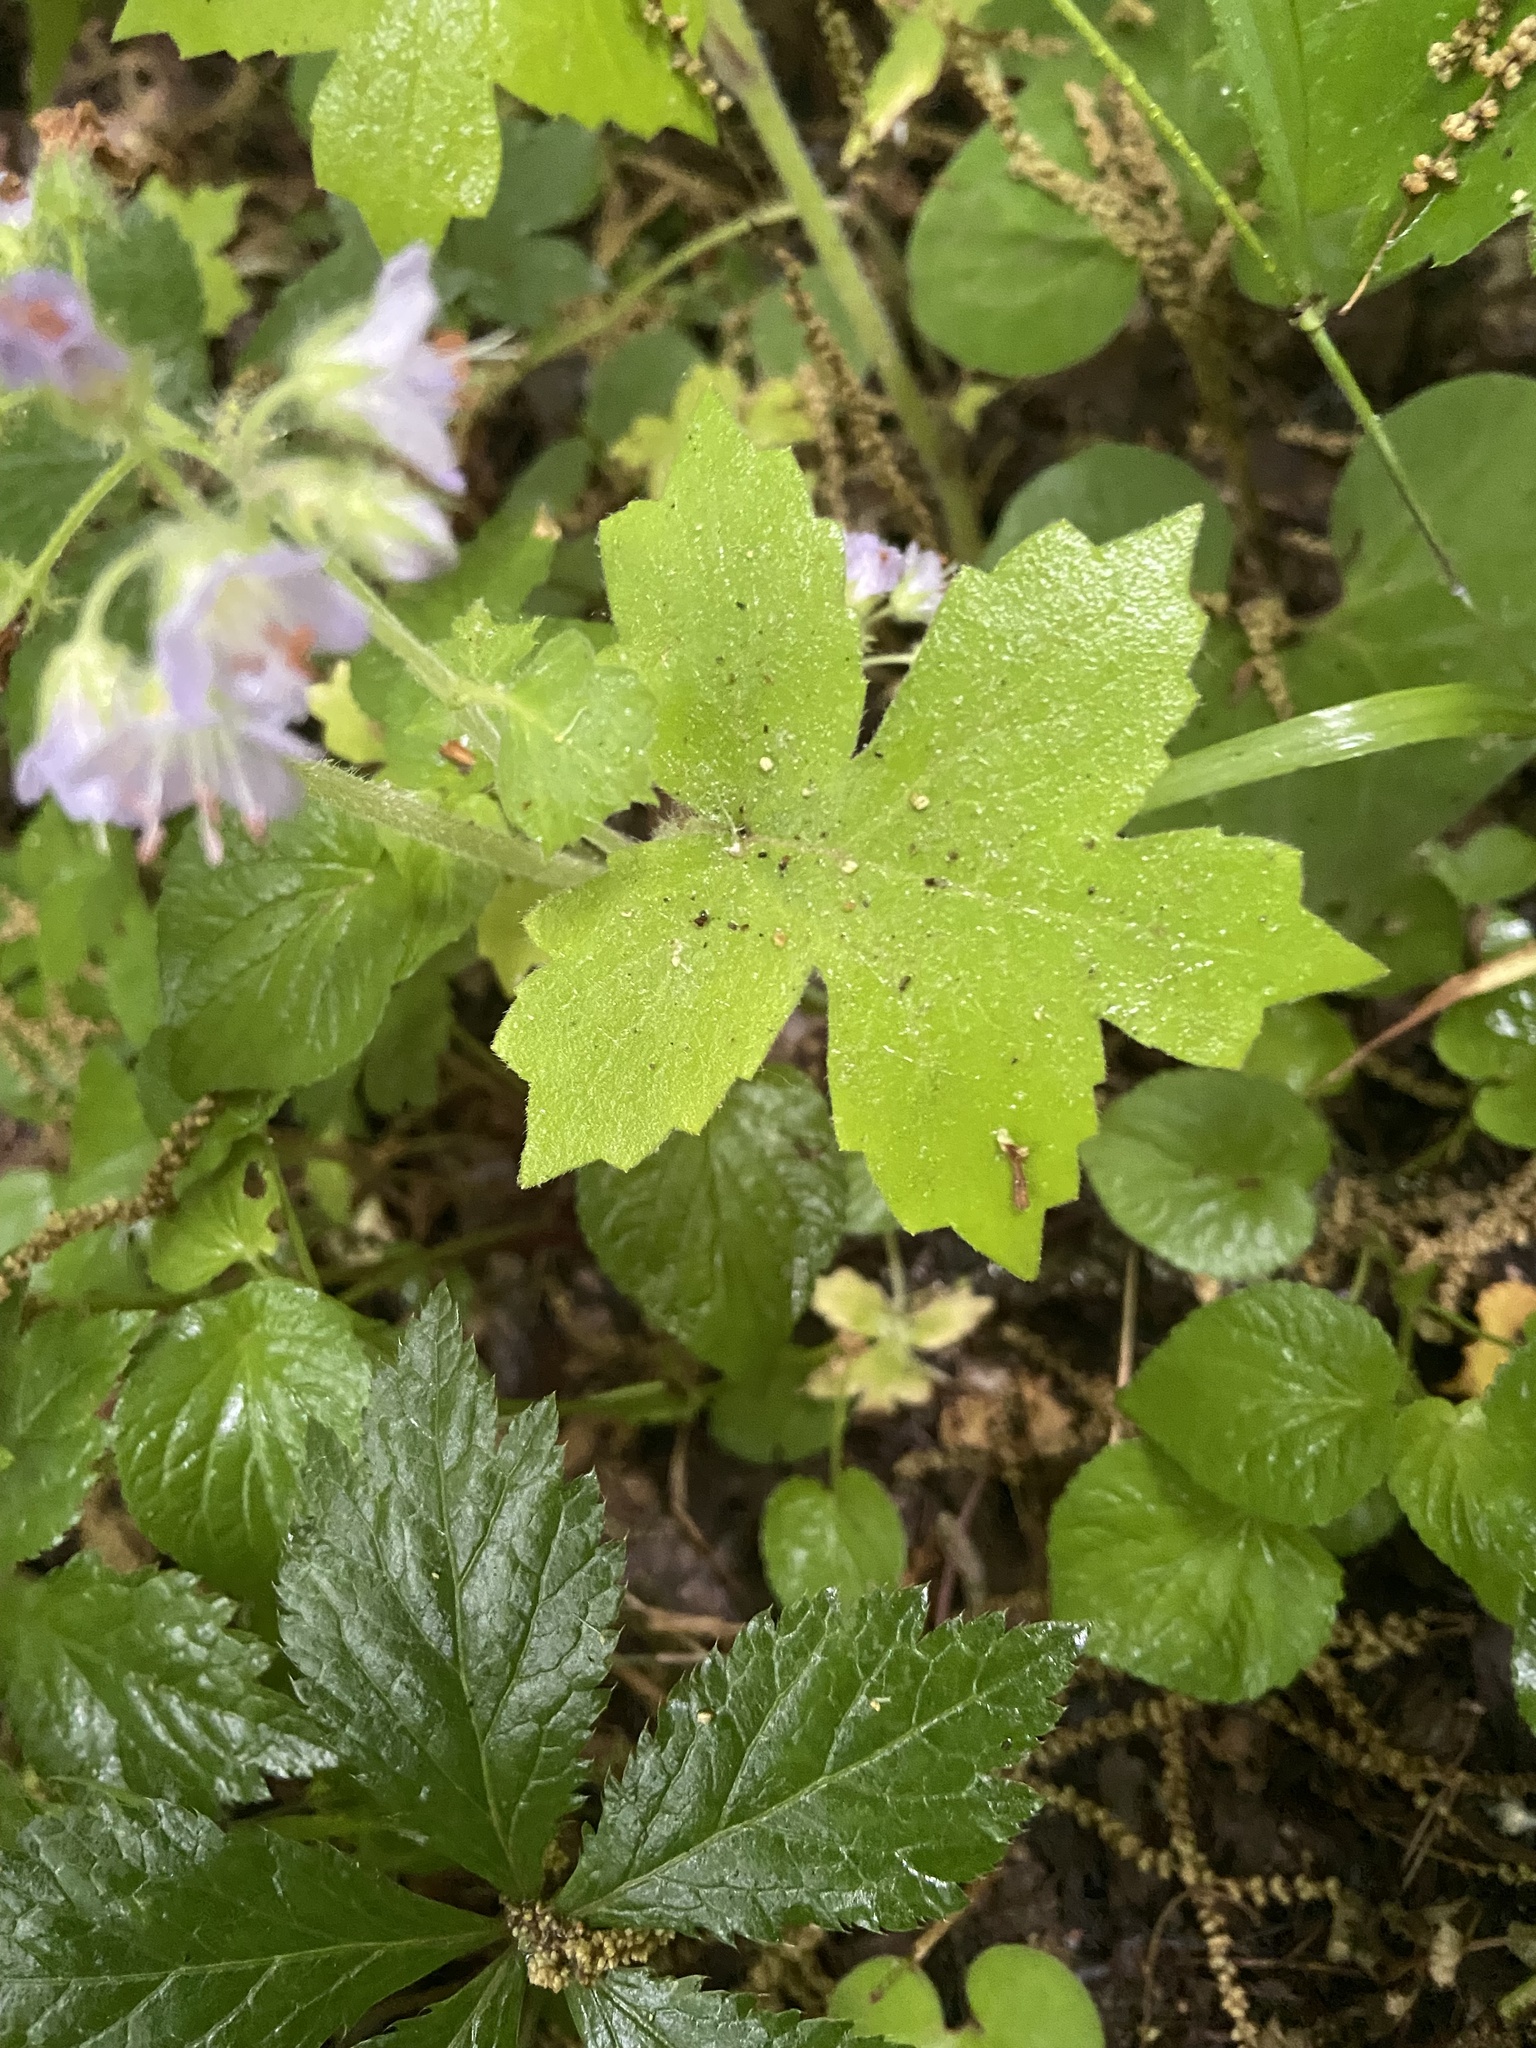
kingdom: Plantae
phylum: Tracheophyta
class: Magnoliopsida
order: Boraginales
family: Hydrophyllaceae
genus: Hydrophyllum
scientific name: Hydrophyllum appendiculatum
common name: Appendaged waterleaf
